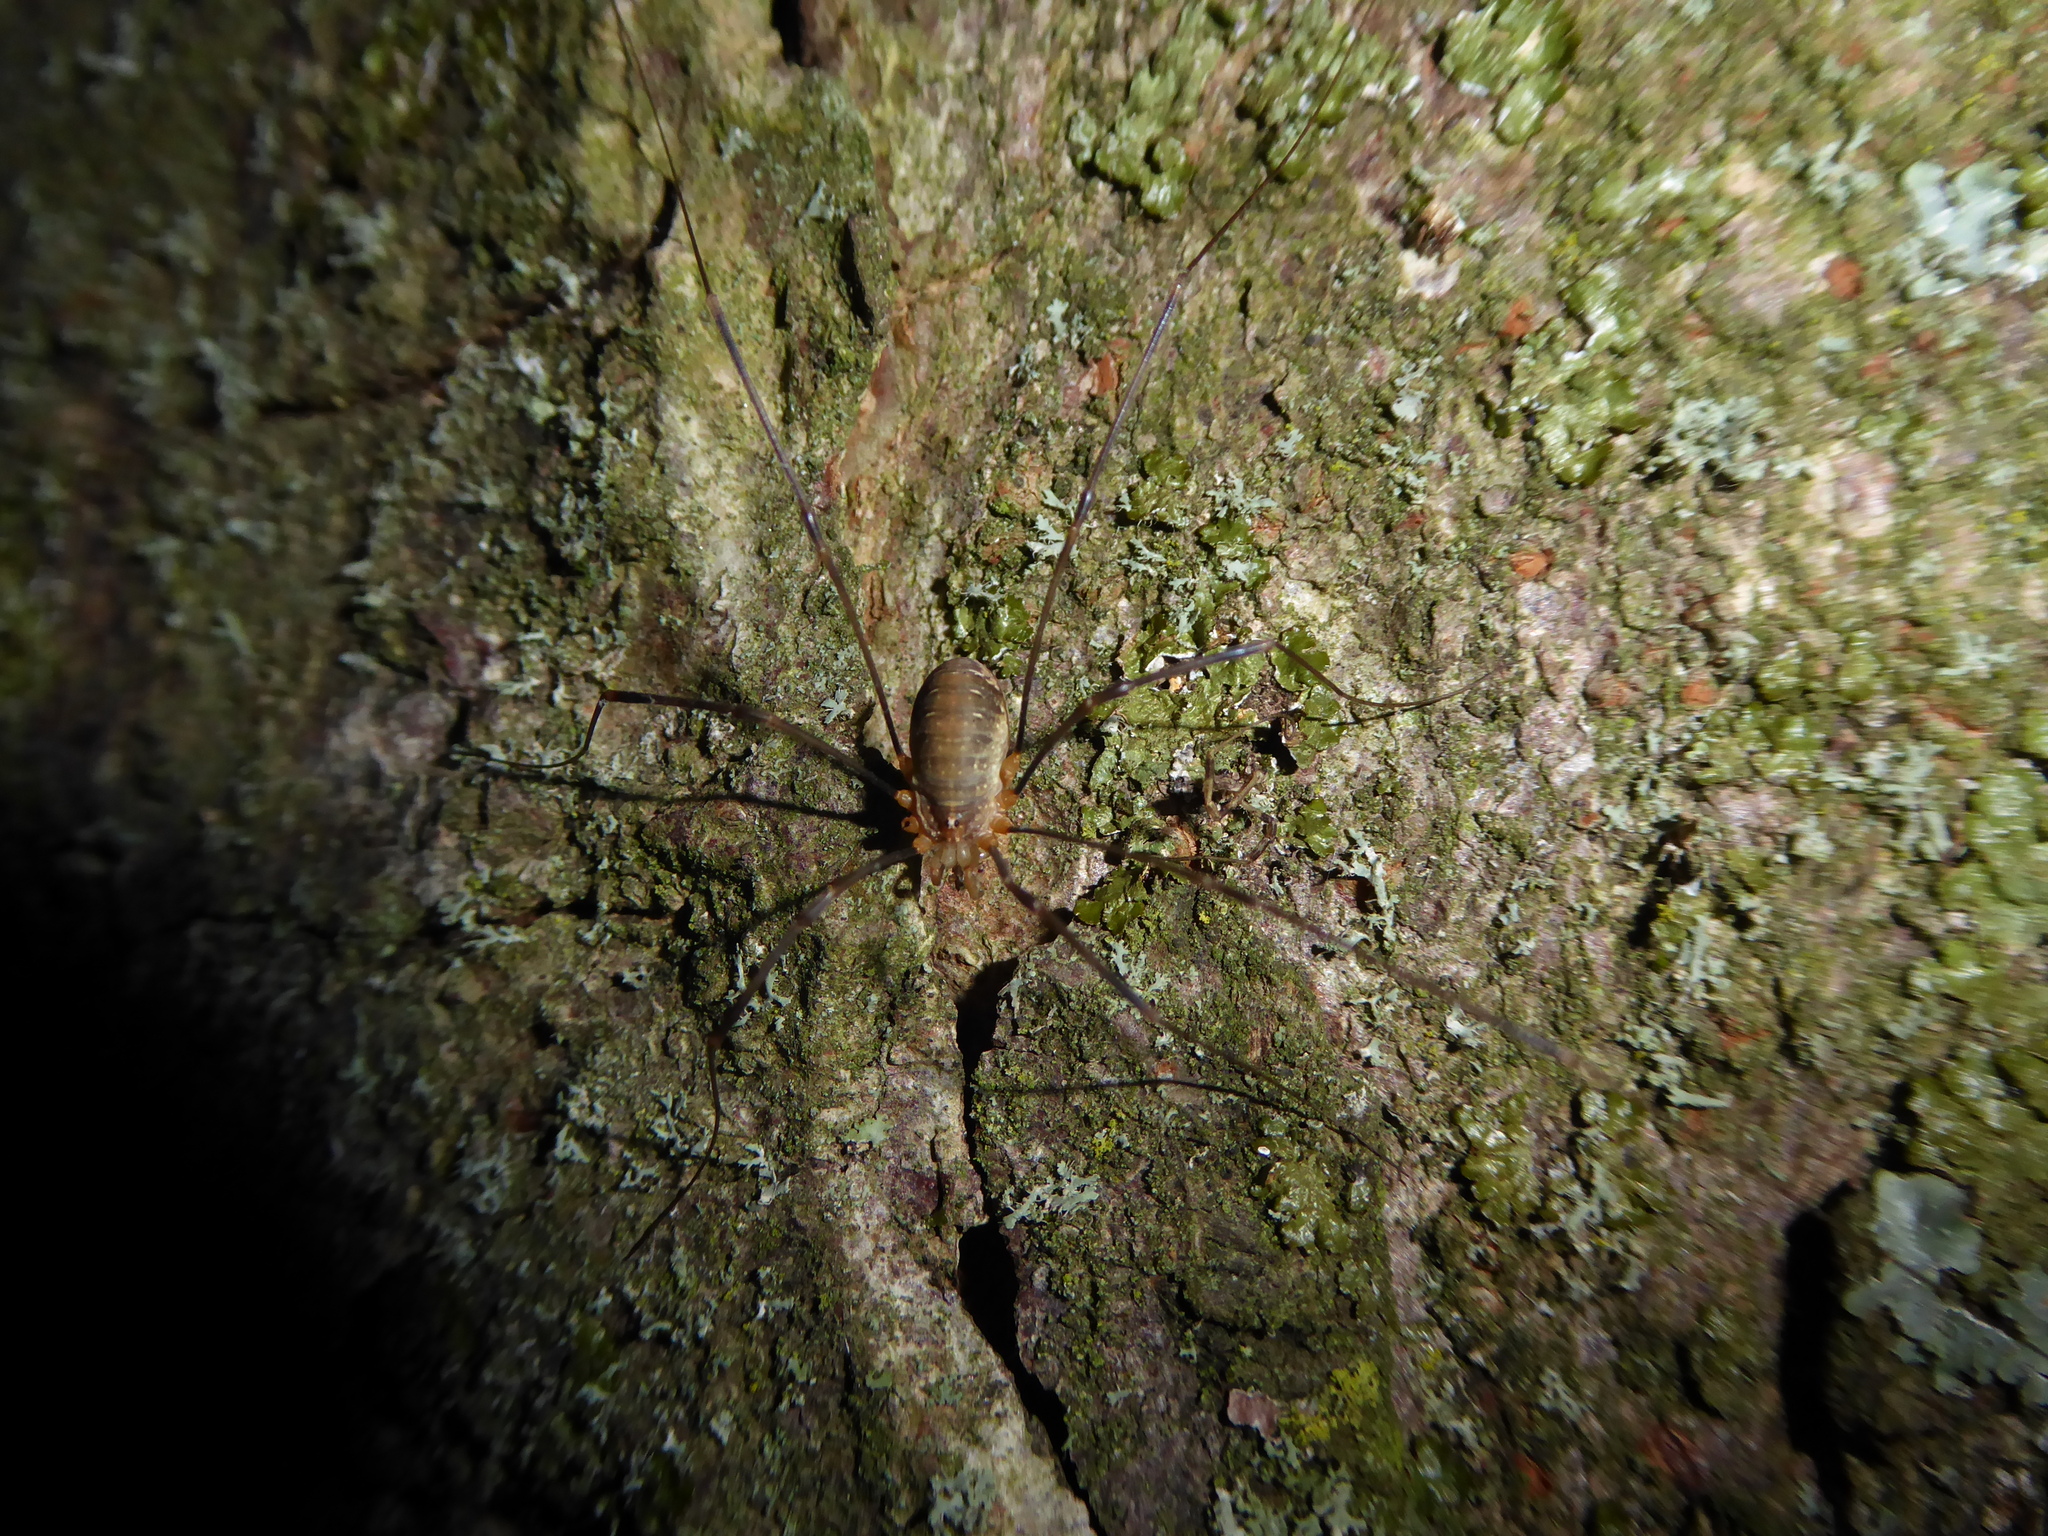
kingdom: Animalia
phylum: Arthropoda
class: Arachnida
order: Opiliones
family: Phalangiidae
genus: Opilio
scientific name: Opilio canestrinii
